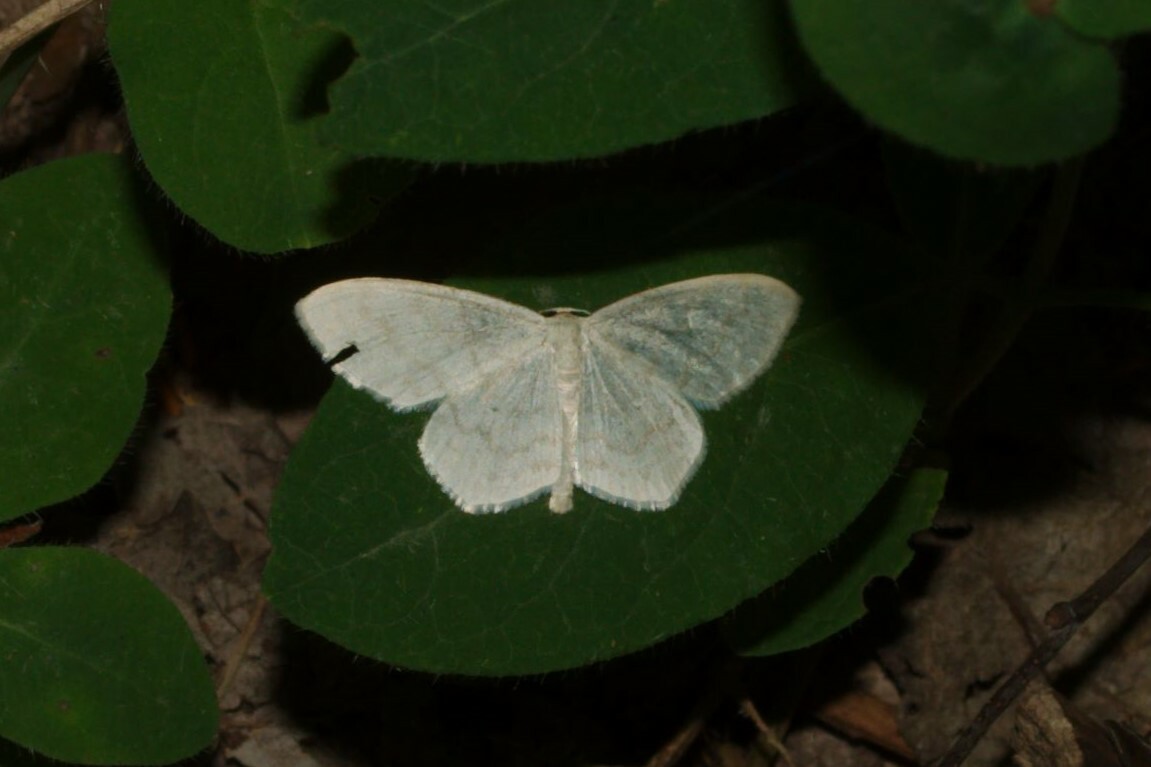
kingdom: Animalia
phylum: Arthropoda
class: Insecta
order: Lepidoptera
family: Geometridae
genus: Scopula
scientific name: Scopula floslactata
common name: Cream wave
